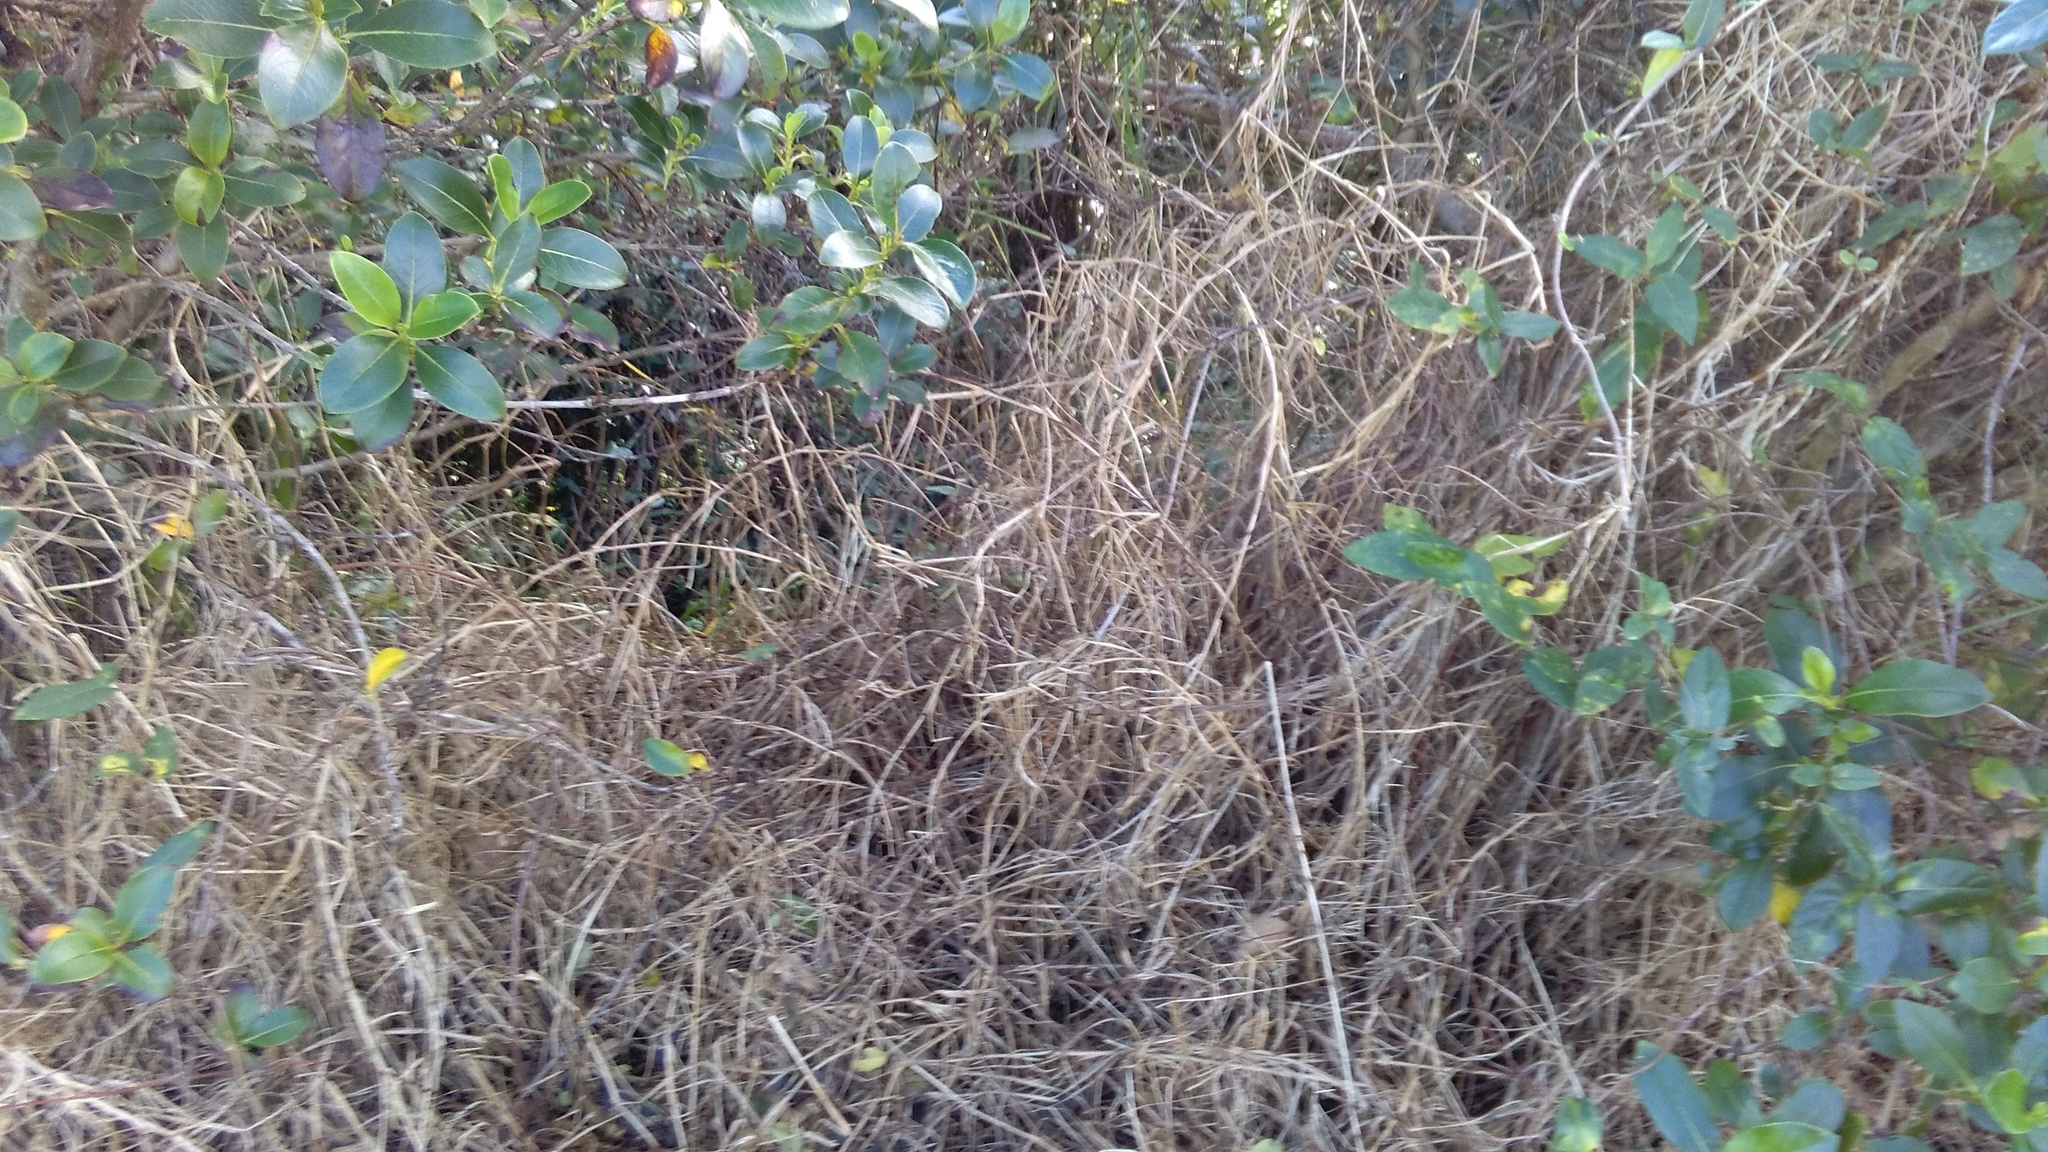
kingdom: Plantae
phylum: Tracheophyta
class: Liliopsida
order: Poales
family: Poaceae
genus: Cenchrus
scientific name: Cenchrus clandestinus
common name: Kikuyugrass
